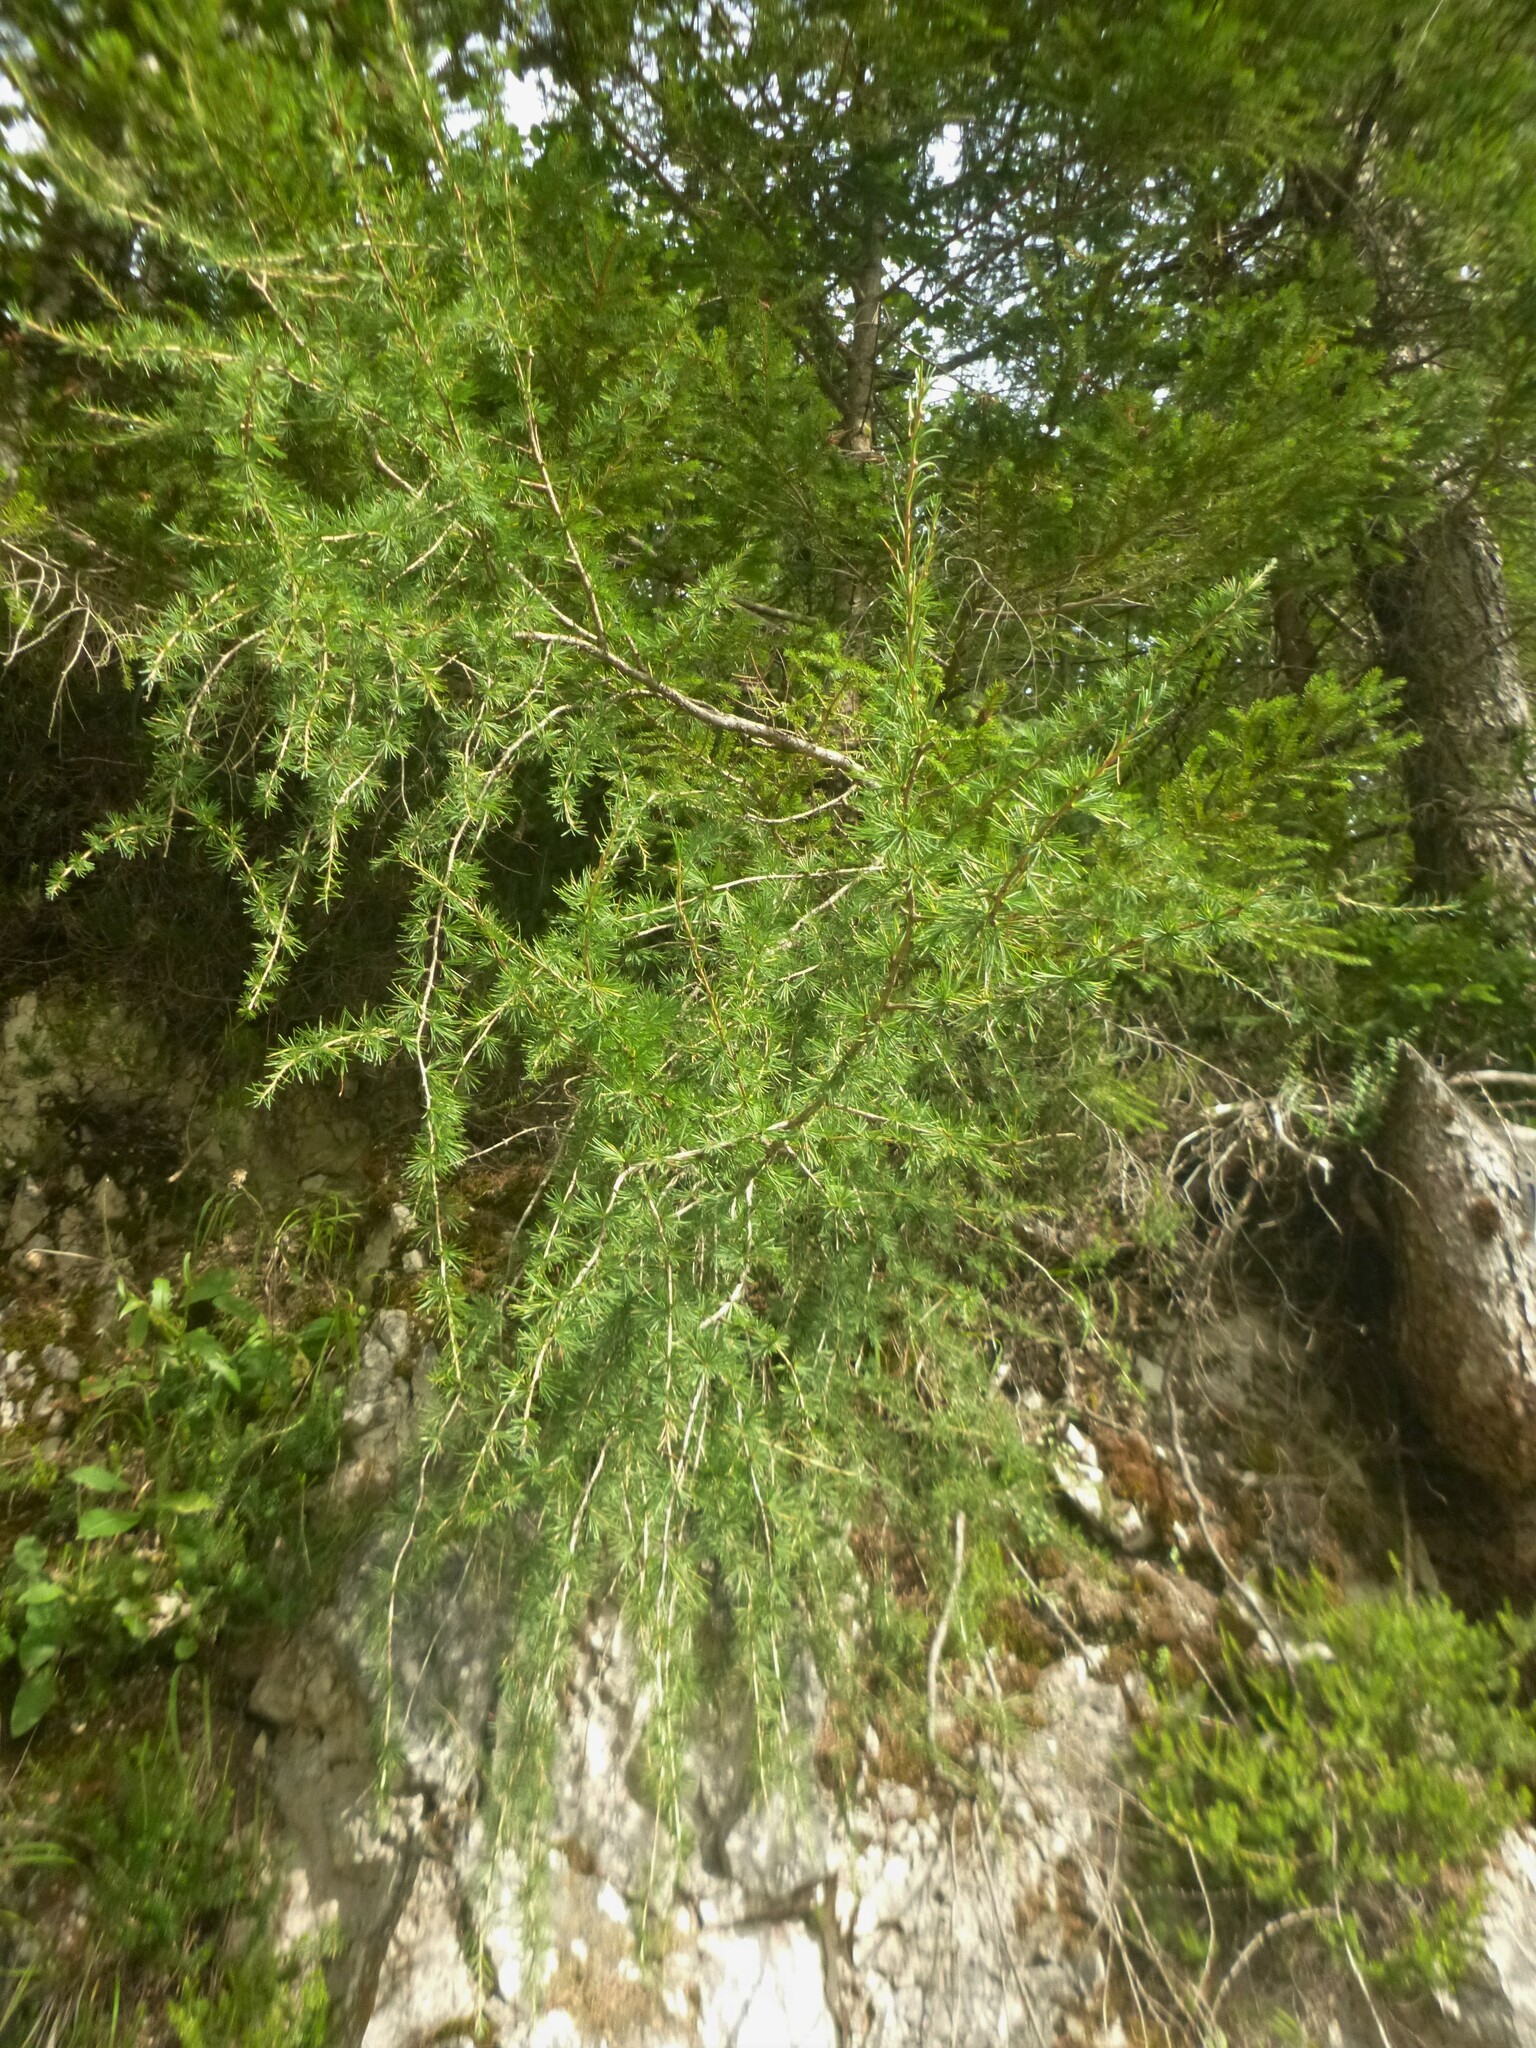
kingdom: Plantae
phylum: Tracheophyta
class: Pinopsida
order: Pinales
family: Pinaceae
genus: Larix
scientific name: Larix decidua
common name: European larch
